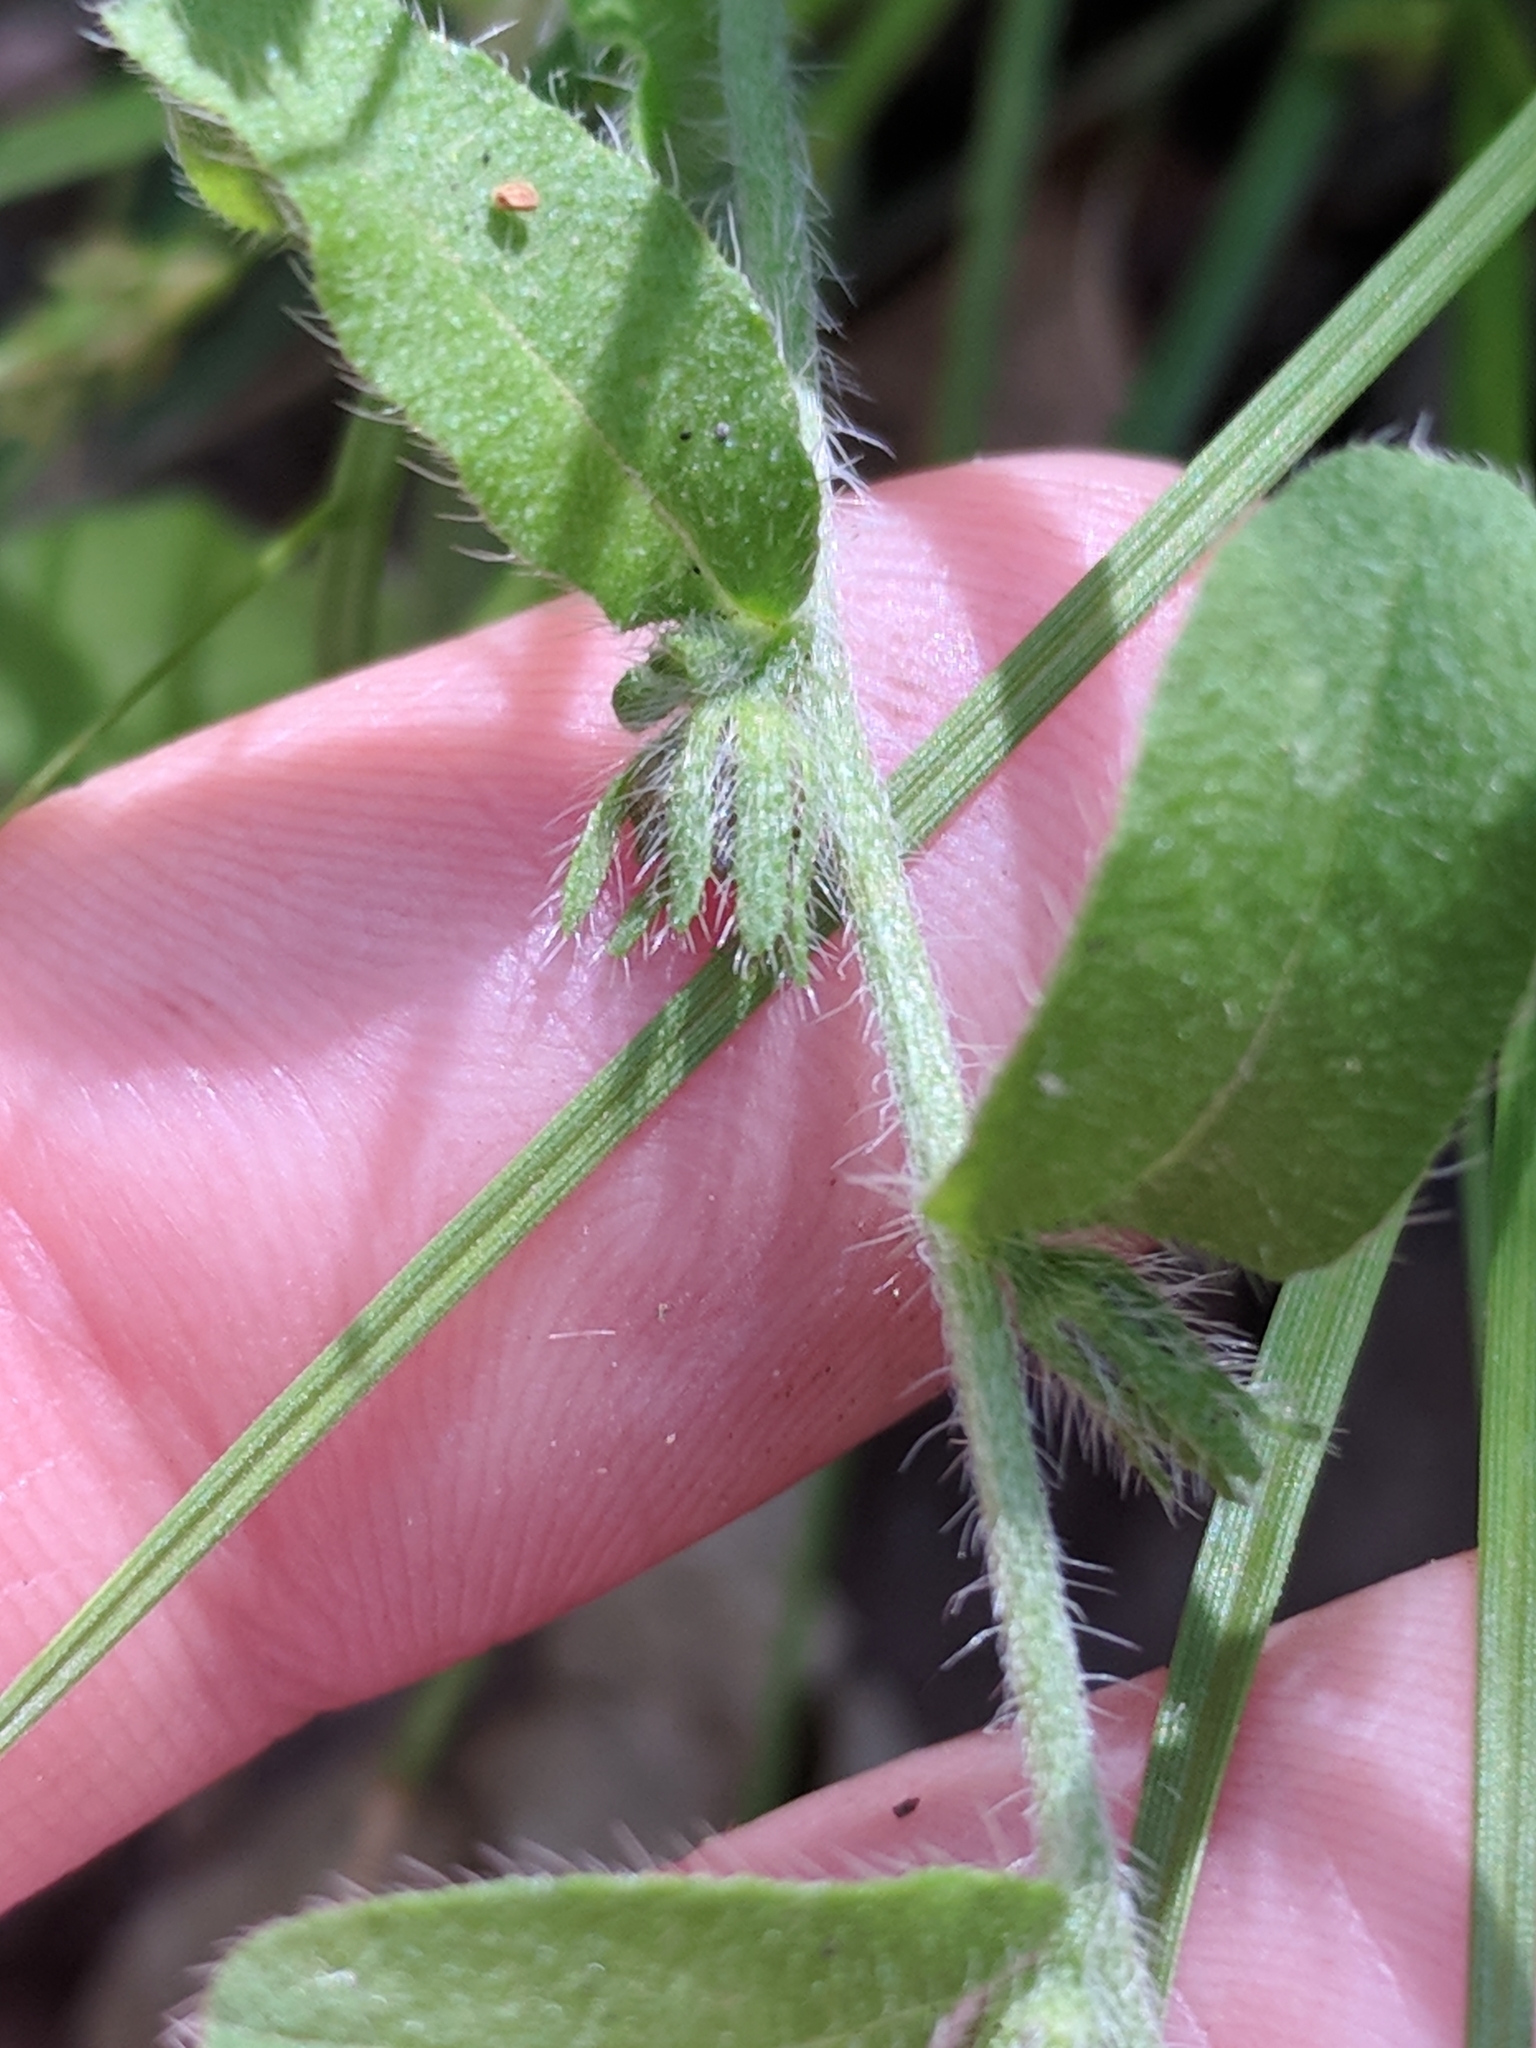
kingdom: Plantae
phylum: Tracheophyta
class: Magnoliopsida
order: Boraginales
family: Boraginaceae
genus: Lithospermum
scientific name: Lithospermum matamorense
